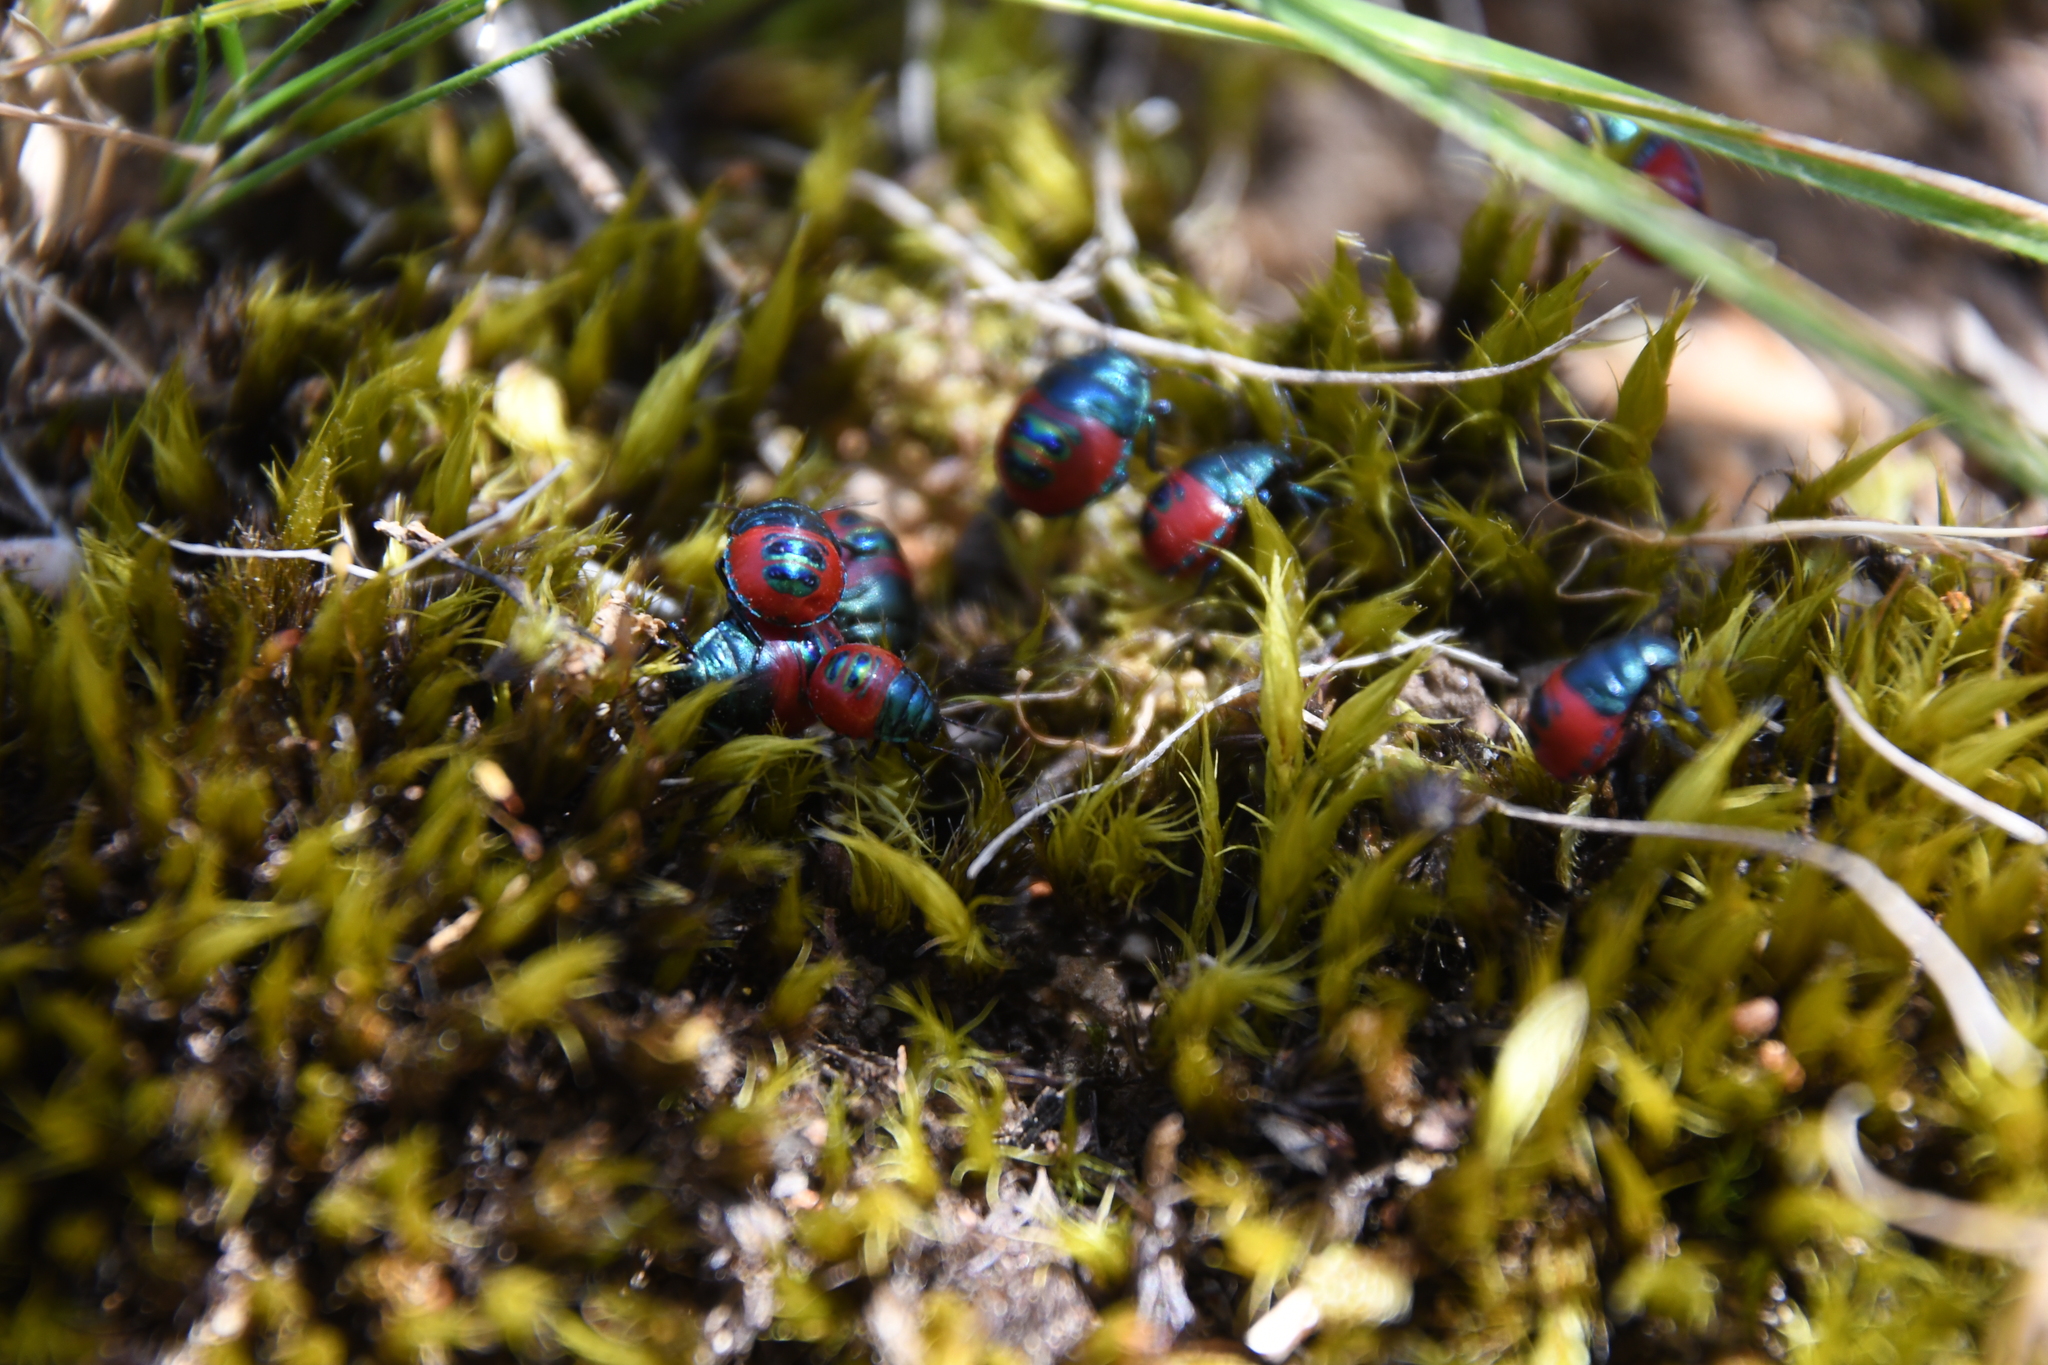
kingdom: Animalia
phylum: Arthropoda
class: Insecta
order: Hemiptera
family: Scutelleridae
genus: Choerocoris
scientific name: Choerocoris paganus
